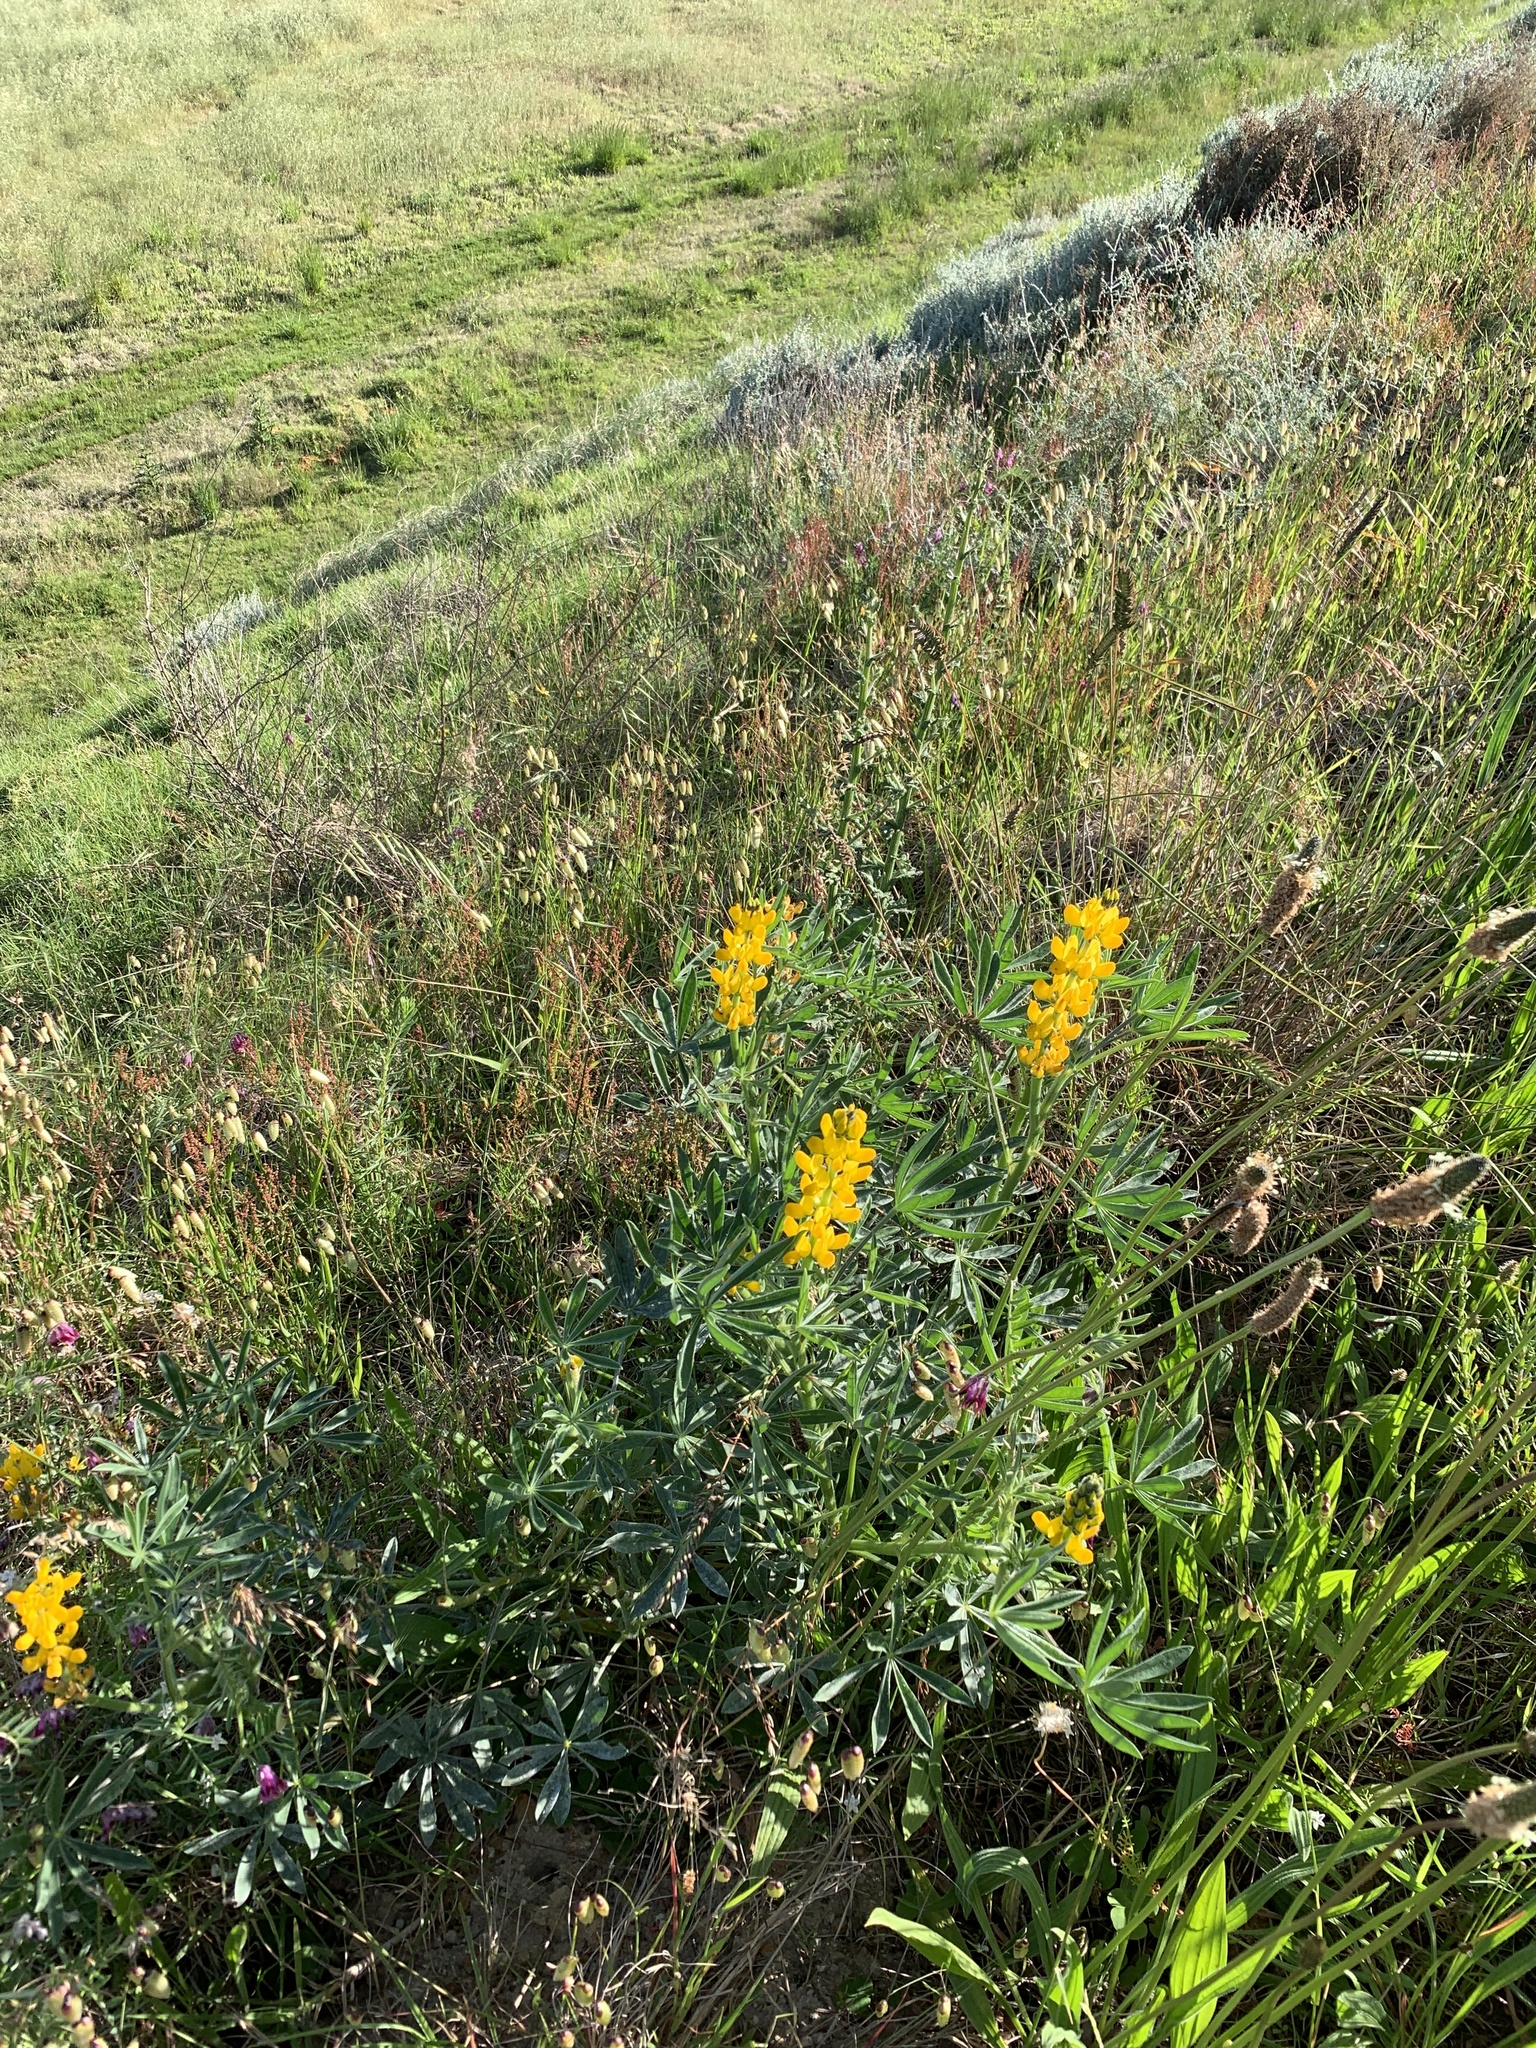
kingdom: Plantae
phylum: Tracheophyta
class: Magnoliopsida
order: Fabales
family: Fabaceae
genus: Lupinus
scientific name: Lupinus luteus
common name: European yellow lupine
